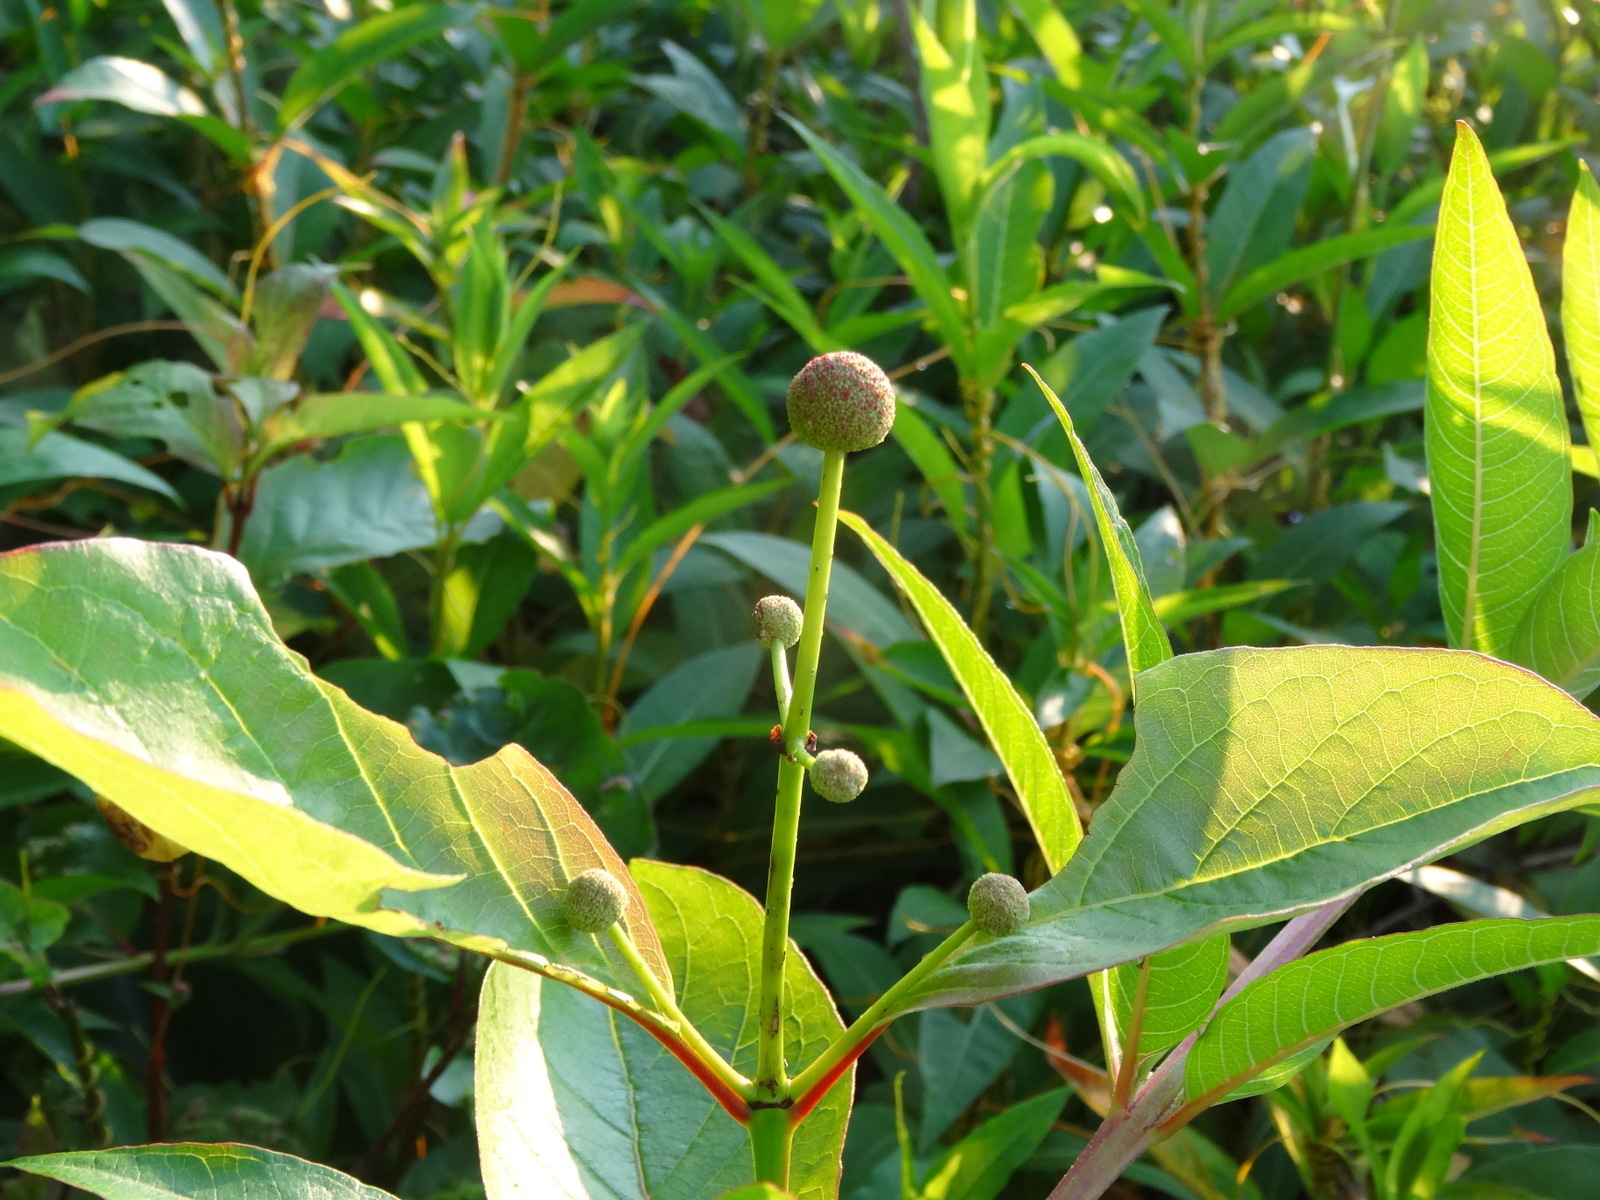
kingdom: Plantae
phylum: Tracheophyta
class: Magnoliopsida
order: Gentianales
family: Rubiaceae
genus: Cephalanthus
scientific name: Cephalanthus occidentalis
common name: Button-willow
